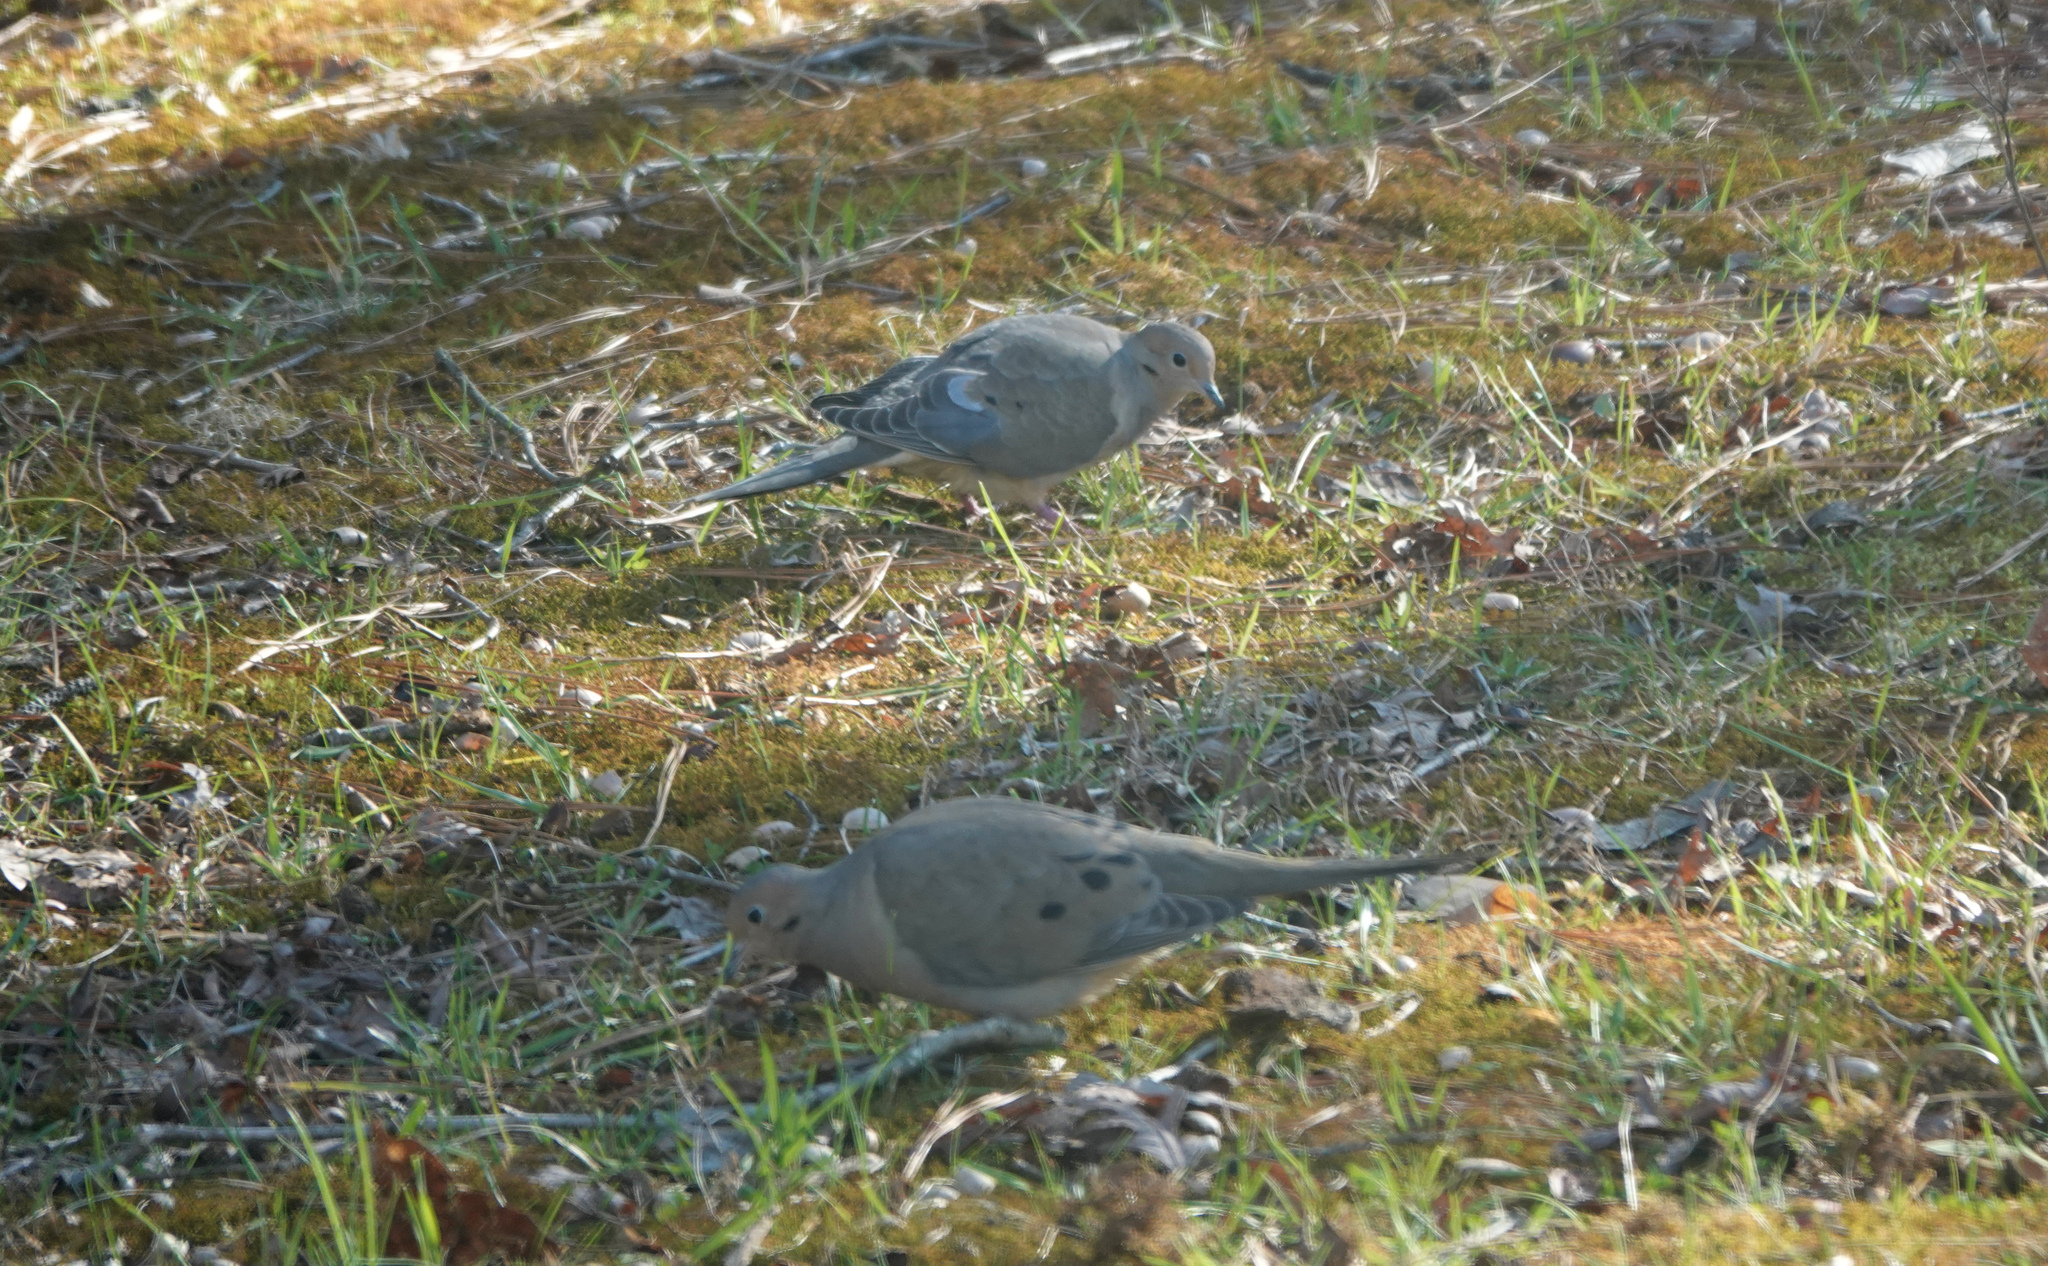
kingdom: Animalia
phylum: Chordata
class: Aves
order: Columbiformes
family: Columbidae
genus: Zenaida
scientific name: Zenaida macroura
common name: Mourning dove
